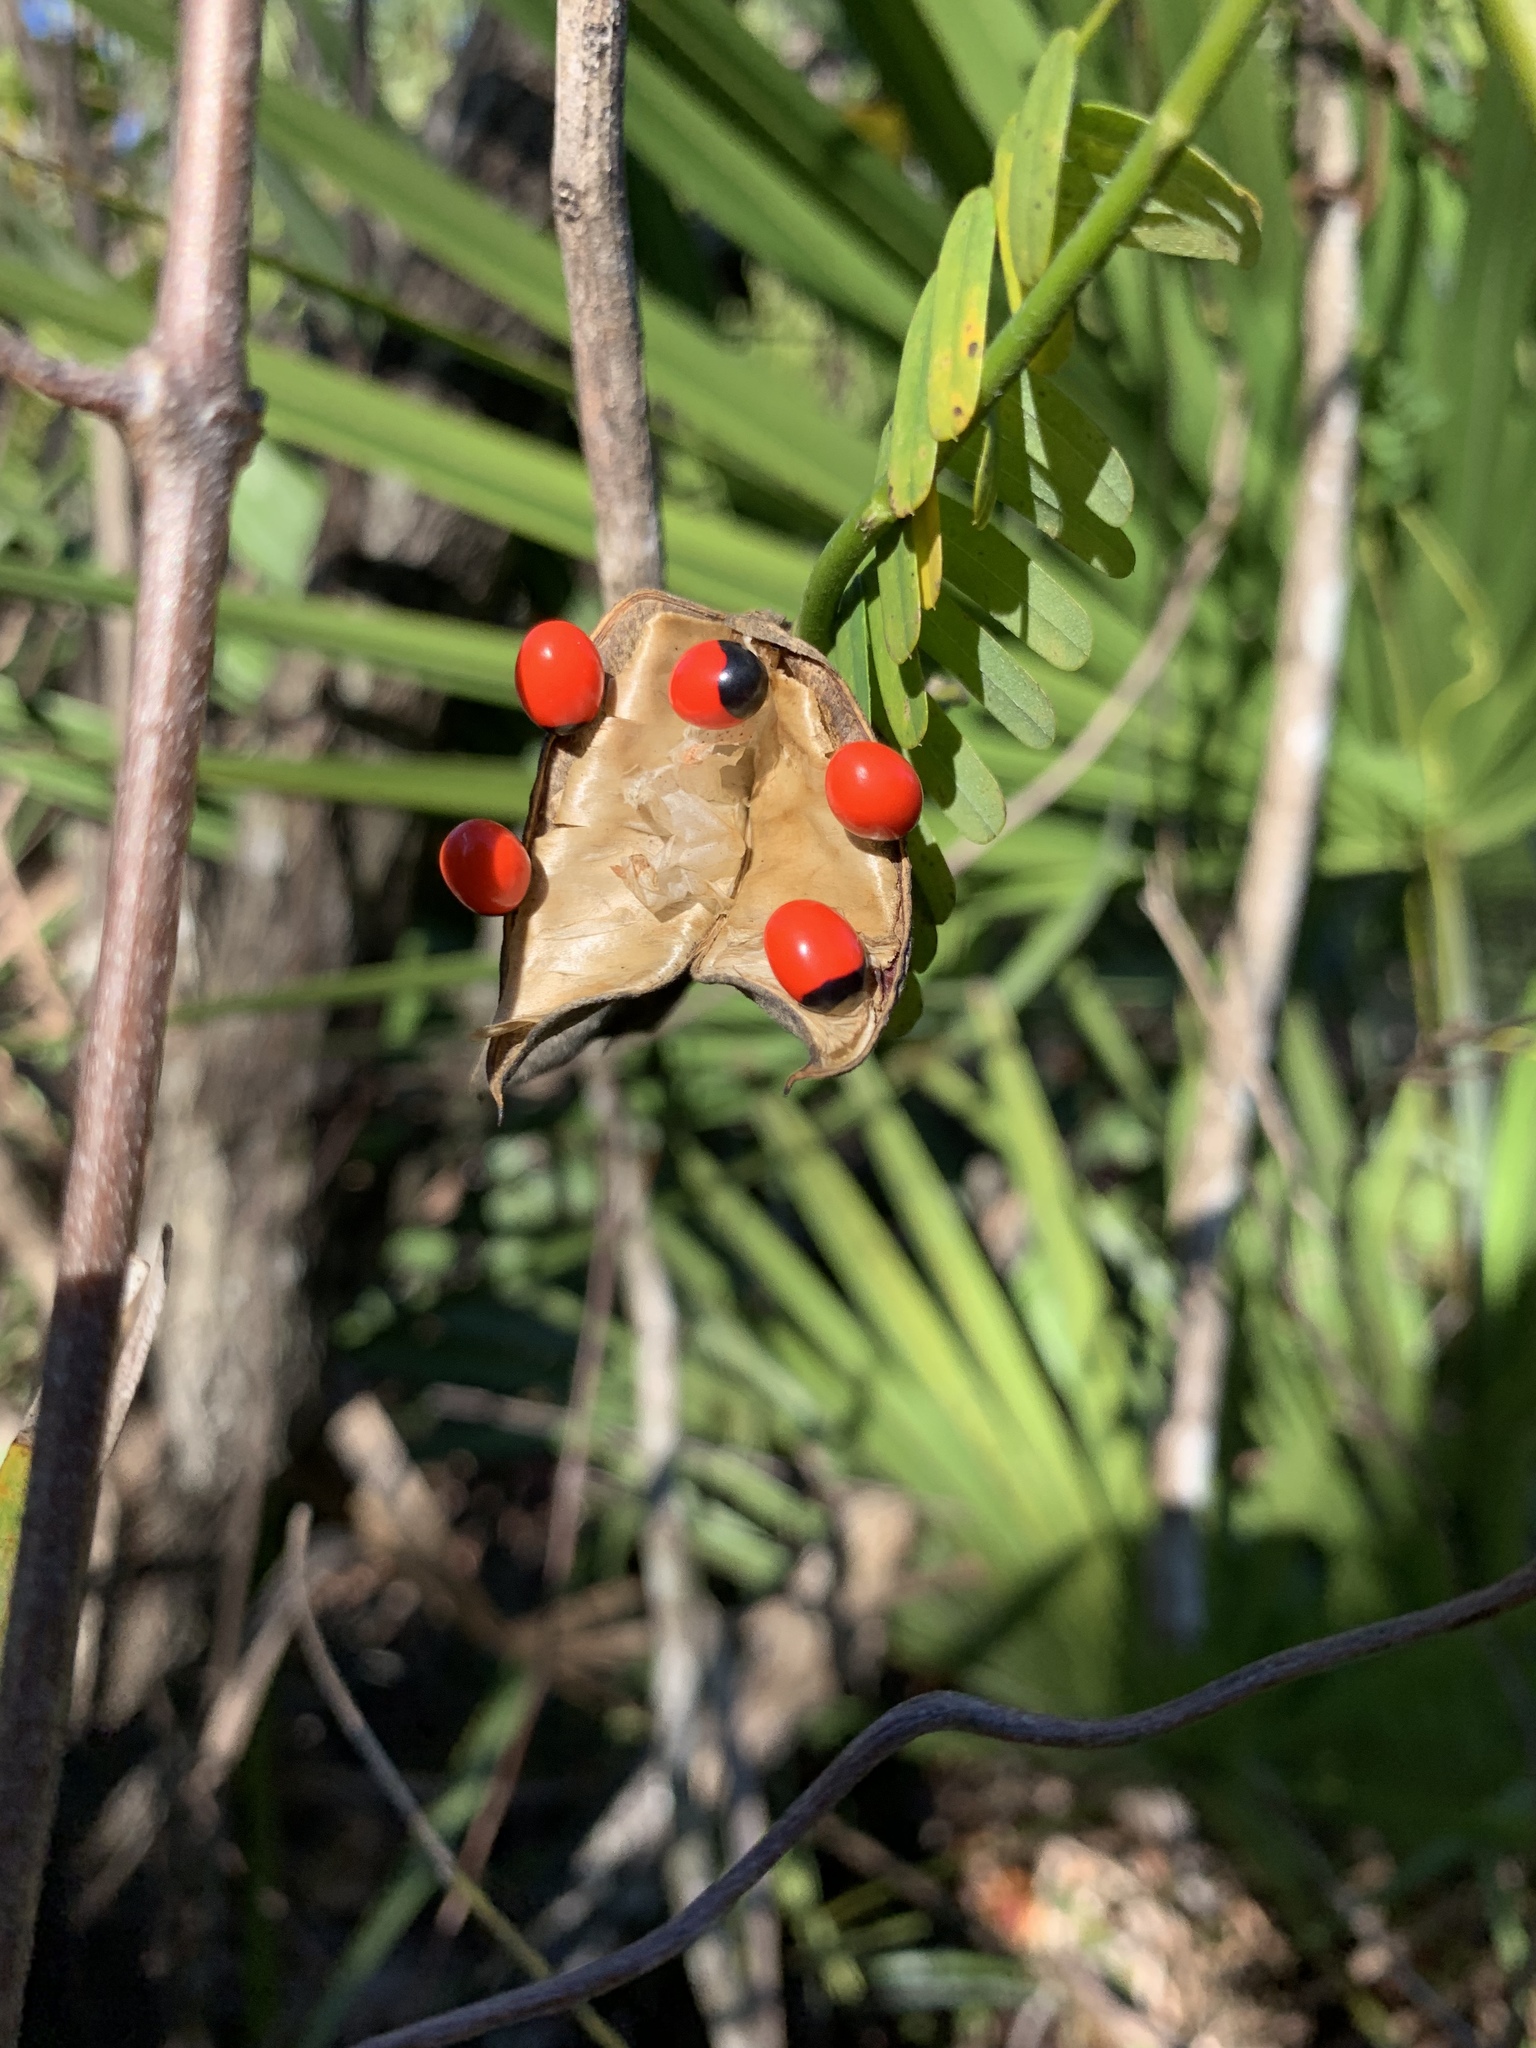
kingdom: Plantae
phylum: Tracheophyta
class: Magnoliopsida
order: Fabales
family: Fabaceae
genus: Abrus
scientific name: Abrus precatorius
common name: Rosarypea
